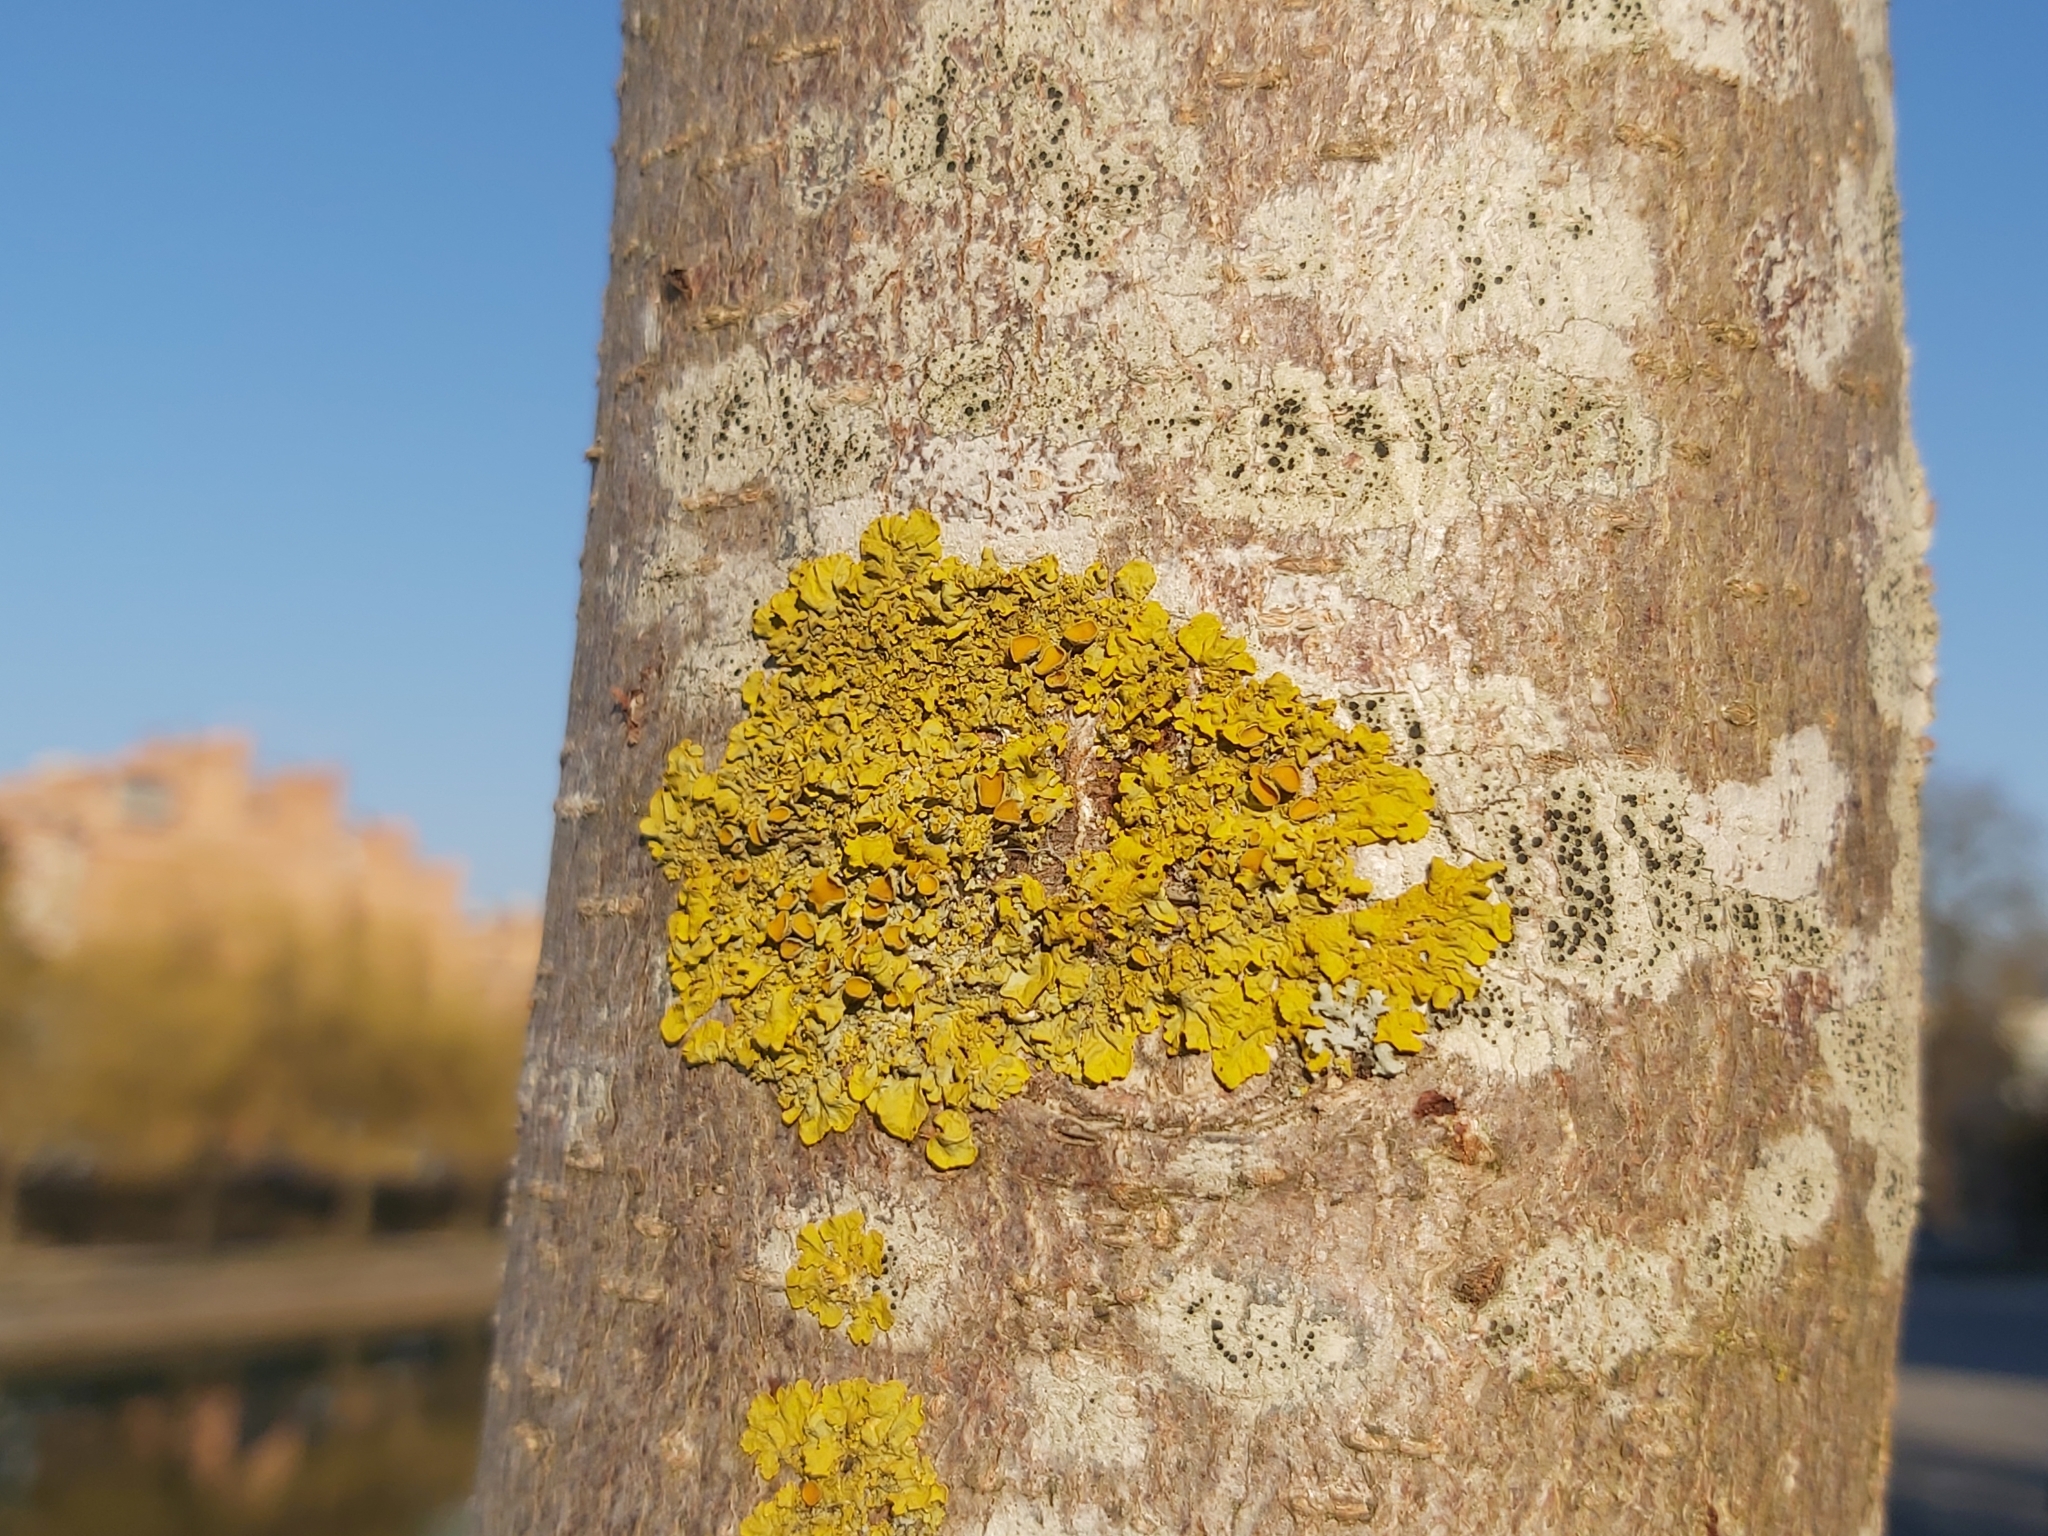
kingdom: Fungi
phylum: Ascomycota
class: Lecanoromycetes
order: Teloschistales
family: Teloschistaceae
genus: Xanthoria
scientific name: Xanthoria parietina
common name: Common orange lichen
